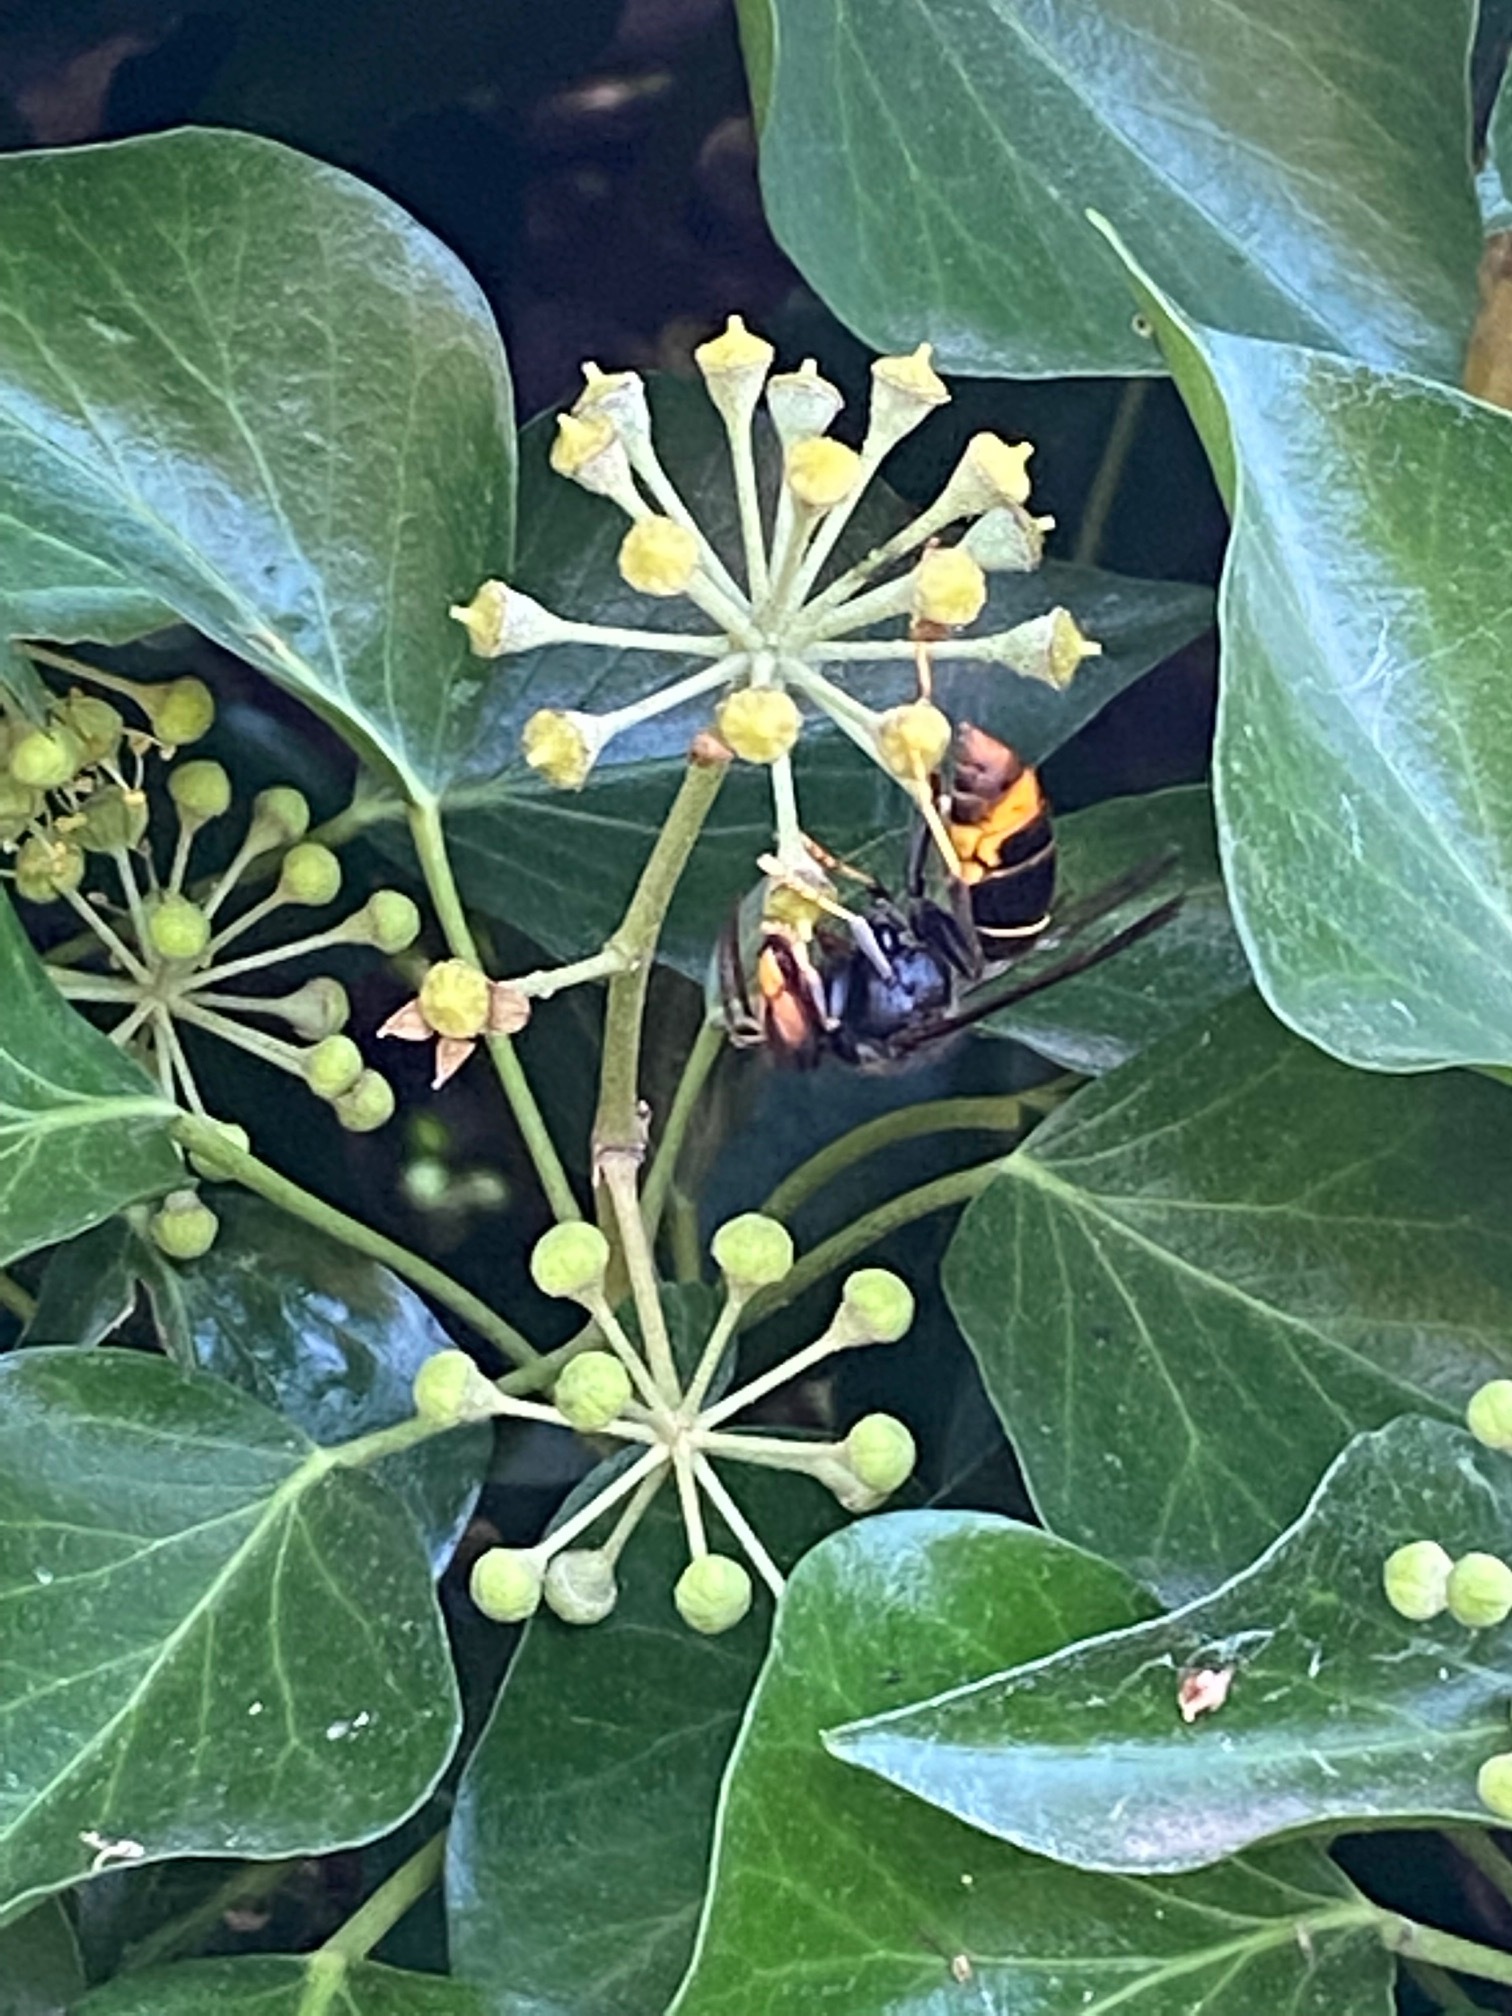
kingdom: Animalia
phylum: Arthropoda
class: Insecta
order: Hymenoptera
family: Vespidae
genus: Vespa
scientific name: Vespa velutina
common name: Asian hornet
